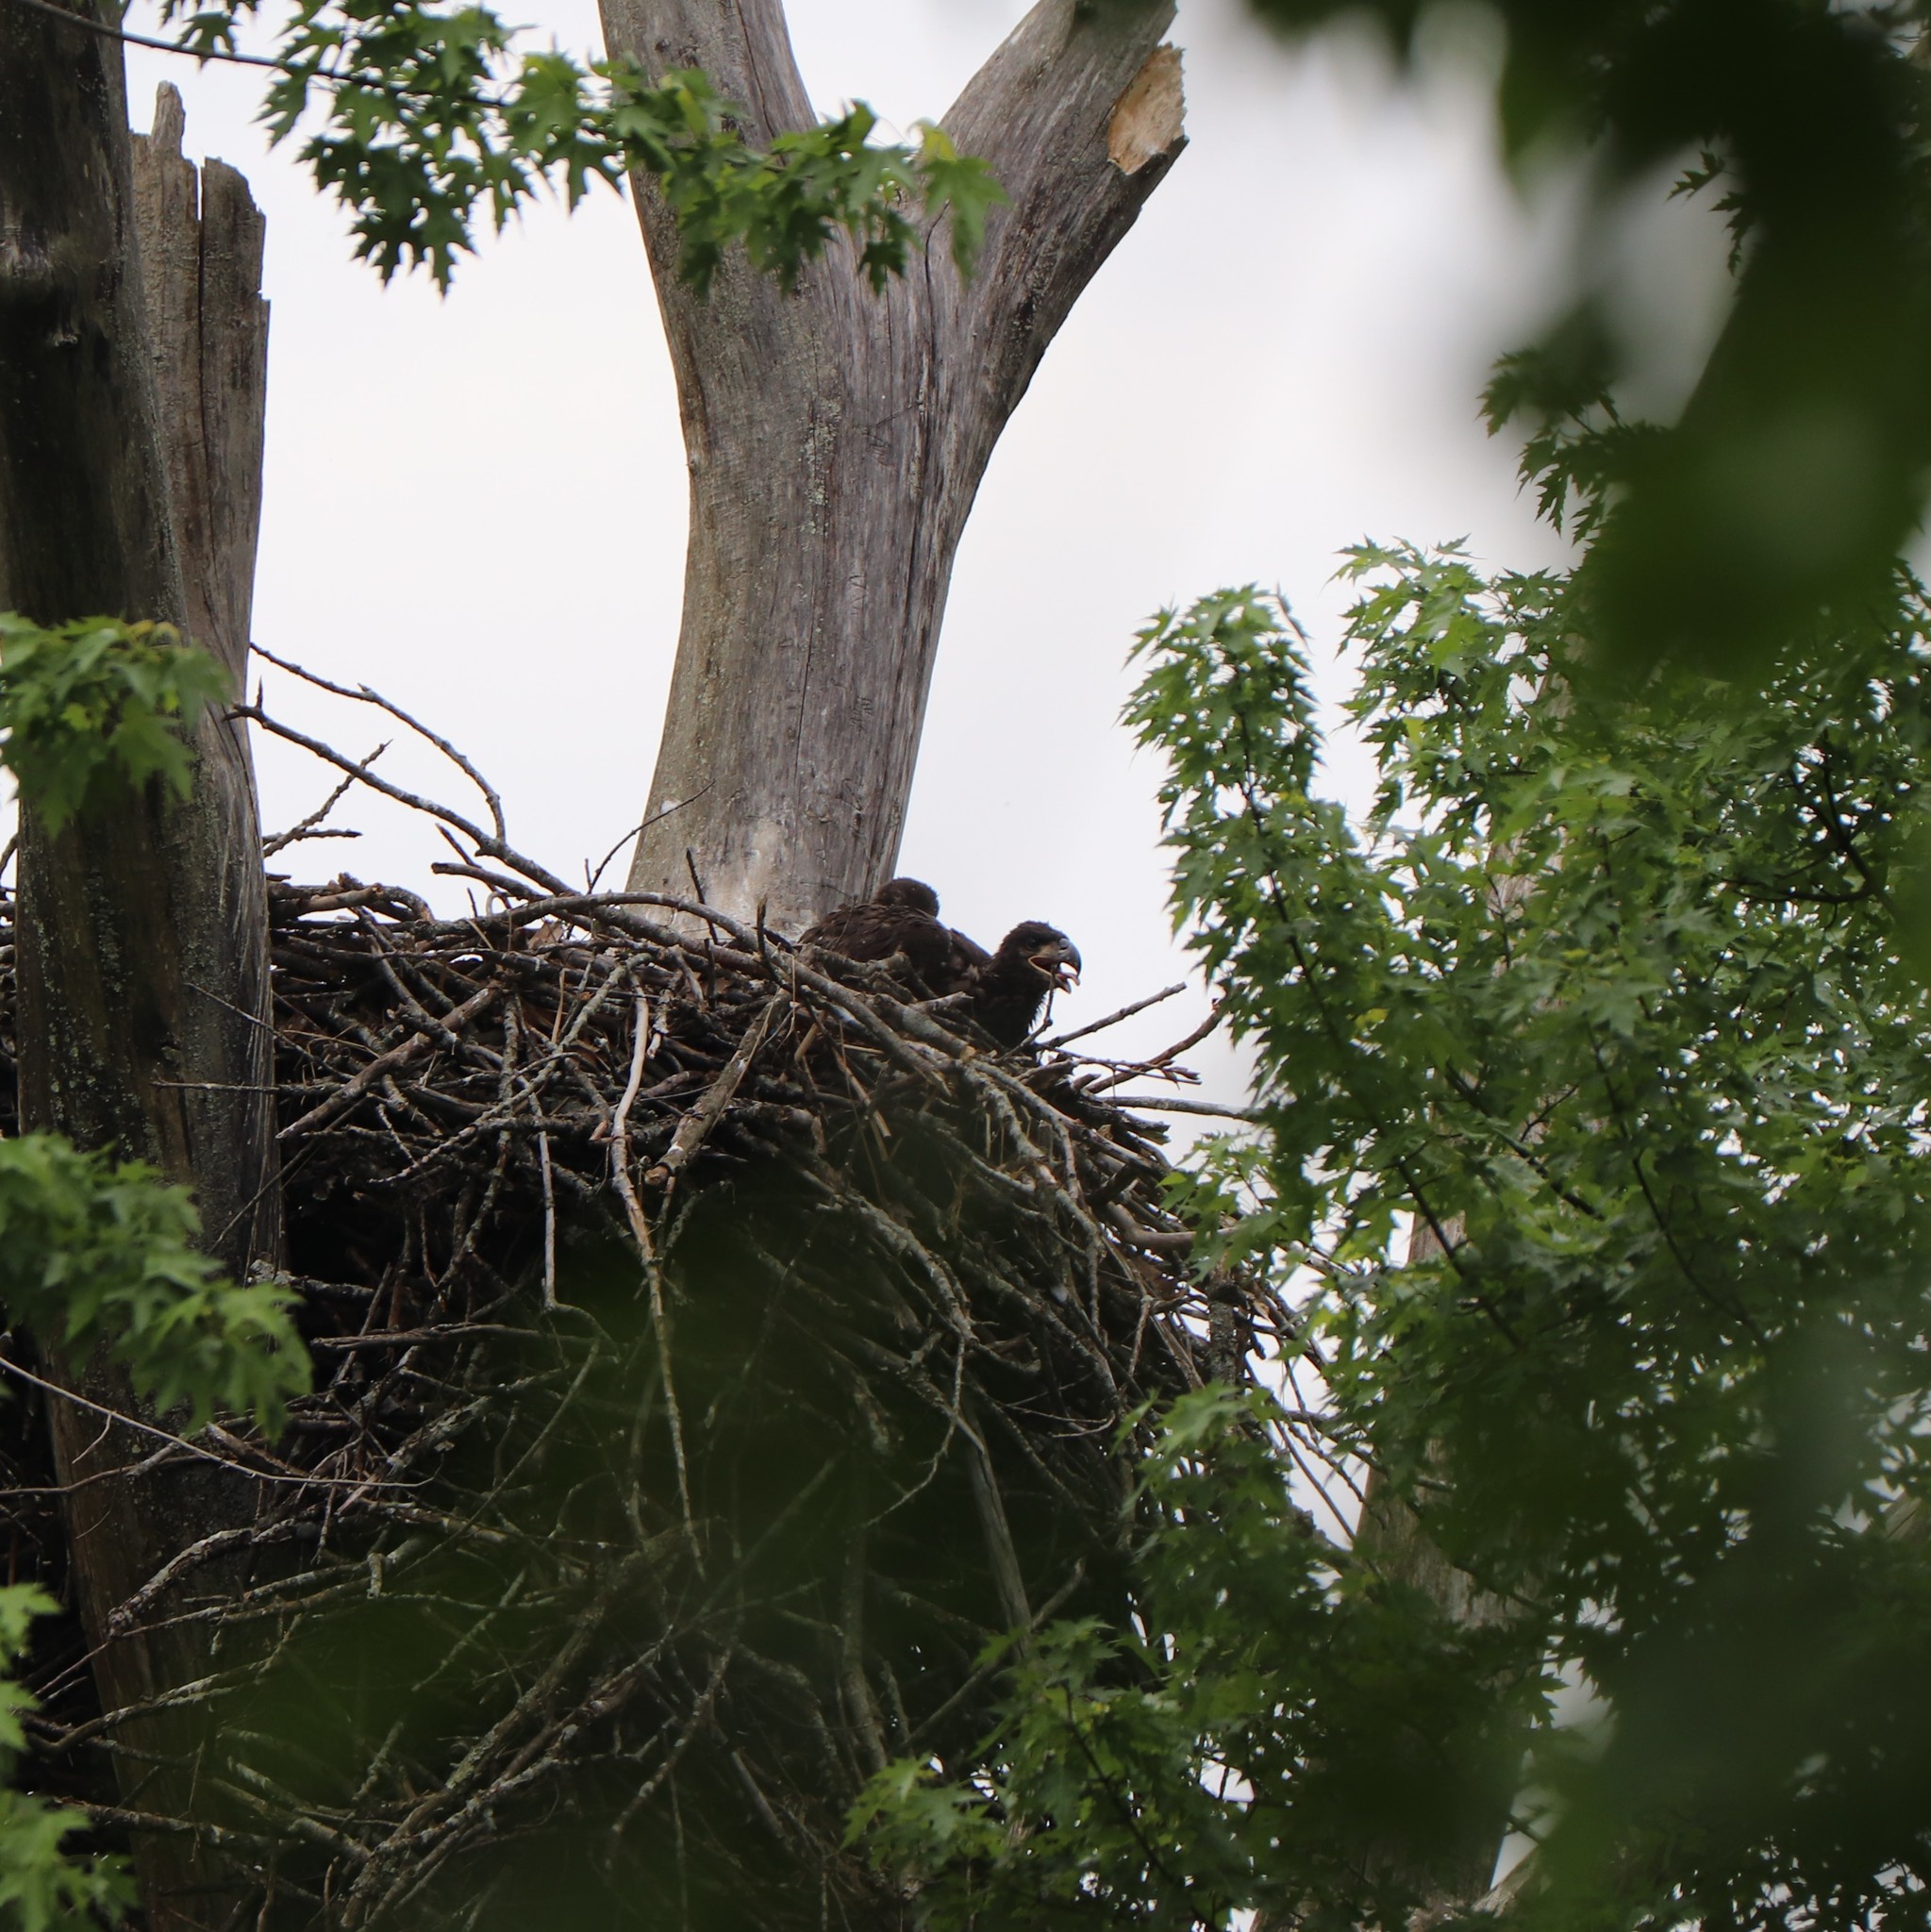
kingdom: Animalia
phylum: Chordata
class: Aves
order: Accipitriformes
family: Accipitridae
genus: Haliaeetus
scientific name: Haliaeetus leucocephalus
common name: Bald eagle
